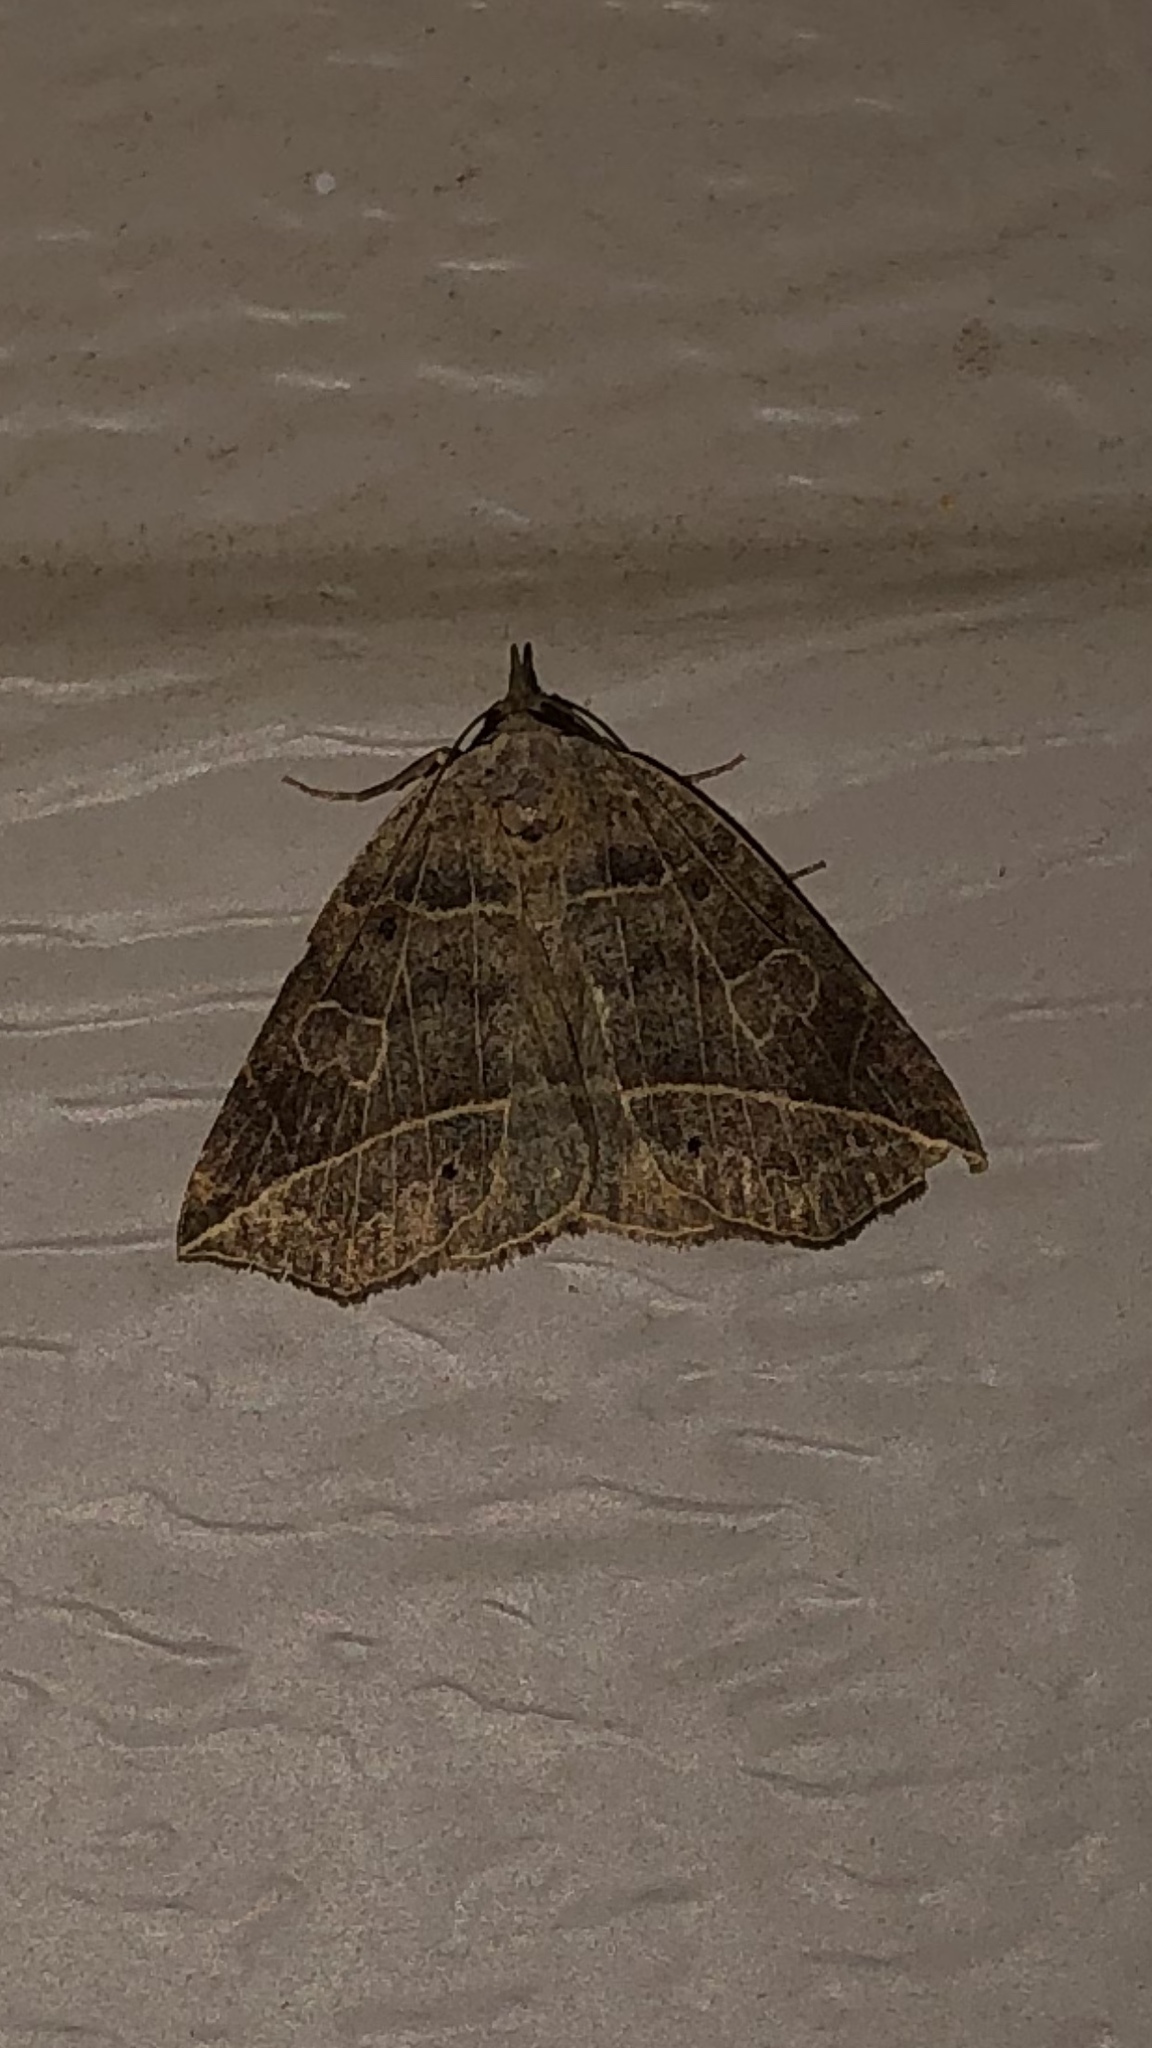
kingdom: Animalia
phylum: Arthropoda
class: Insecta
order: Lepidoptera
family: Erebidae
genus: Isogona
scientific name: Isogona tenuis
